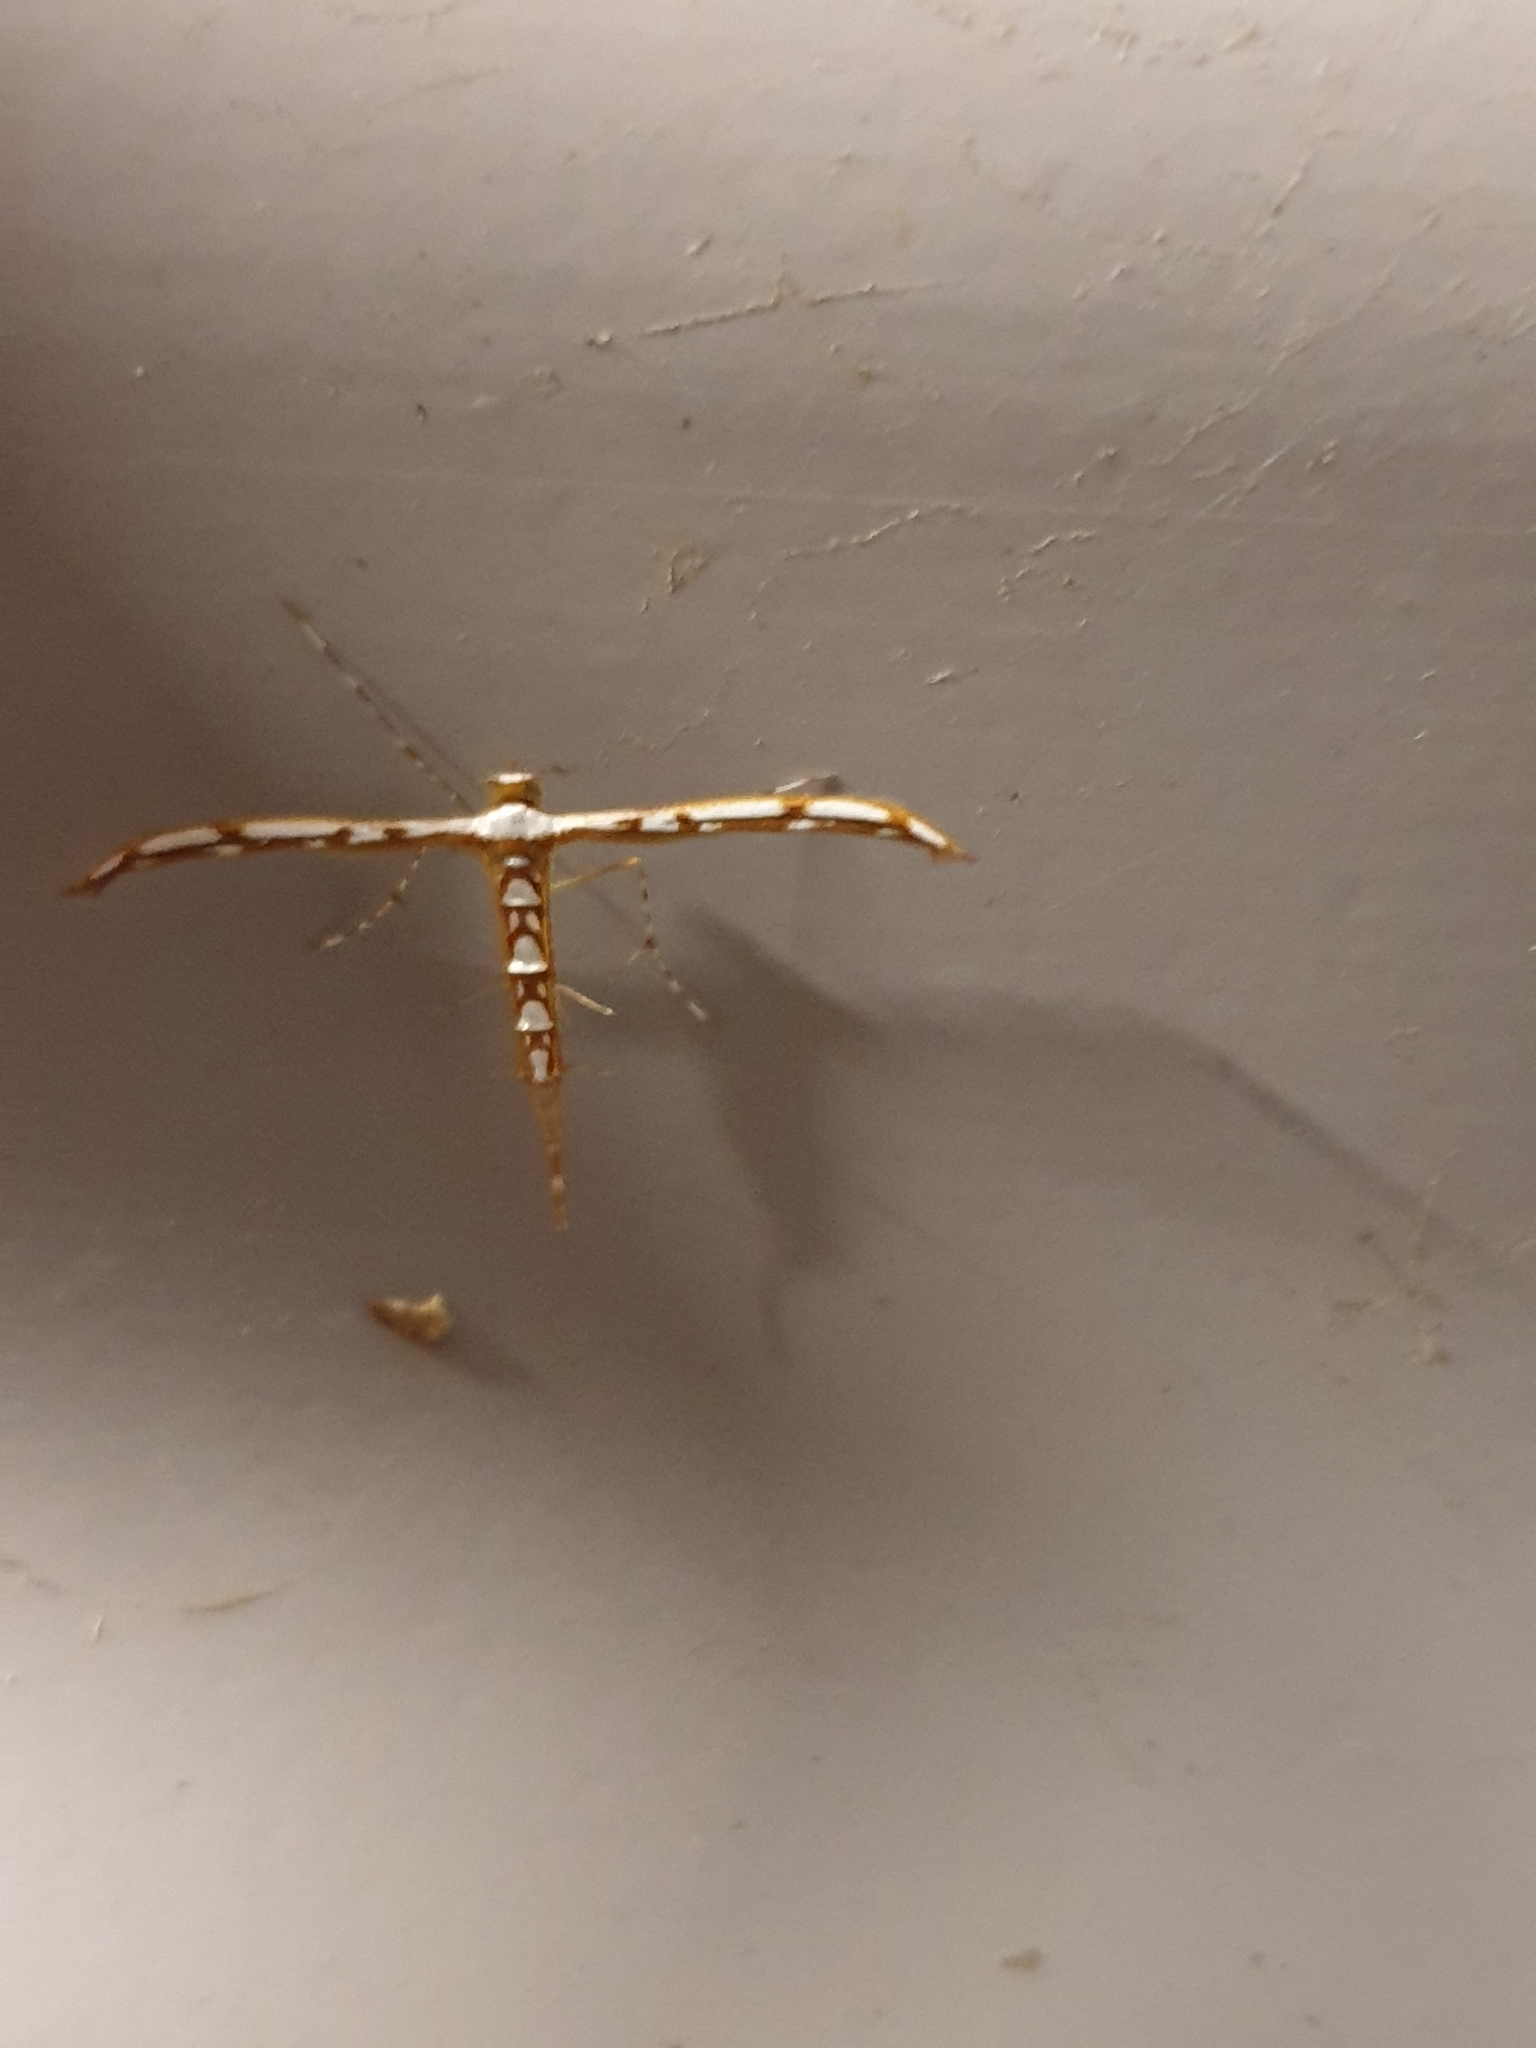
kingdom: Animalia
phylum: Arthropoda
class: Insecta
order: Lepidoptera
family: Pterophoridae
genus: Cosmoclostis
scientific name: Cosmoclostis aglaodesma
